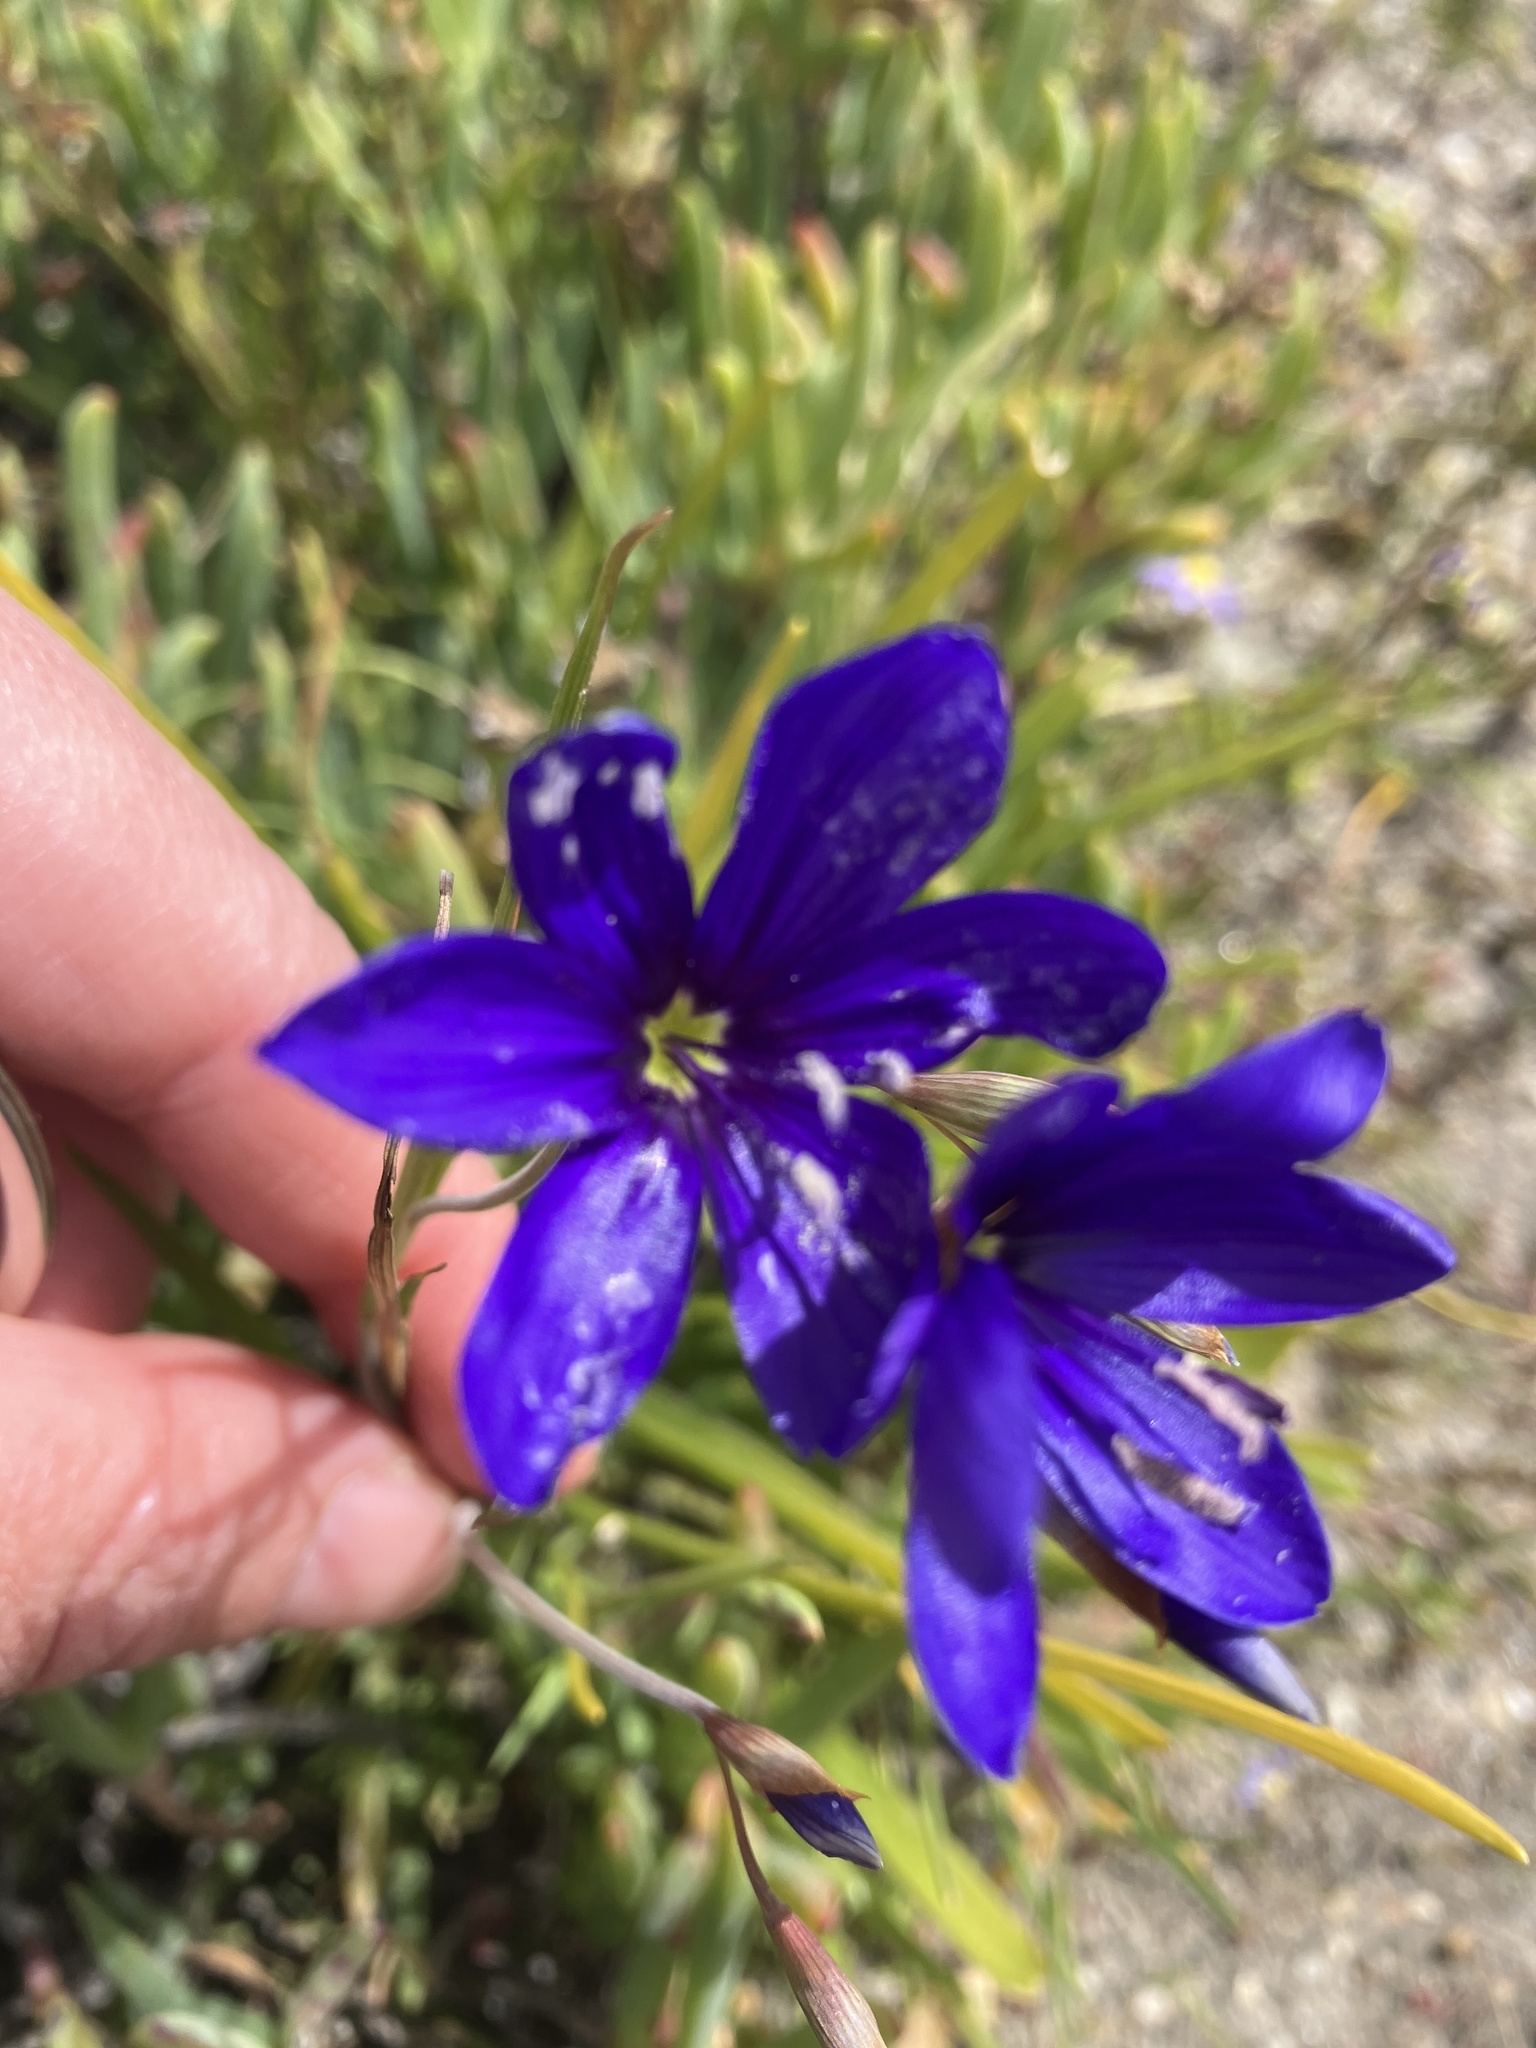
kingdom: Plantae
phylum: Tracheophyta
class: Liliopsida
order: Asparagales
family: Iridaceae
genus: Geissorhiza
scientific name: Geissorhiza lewisiae
